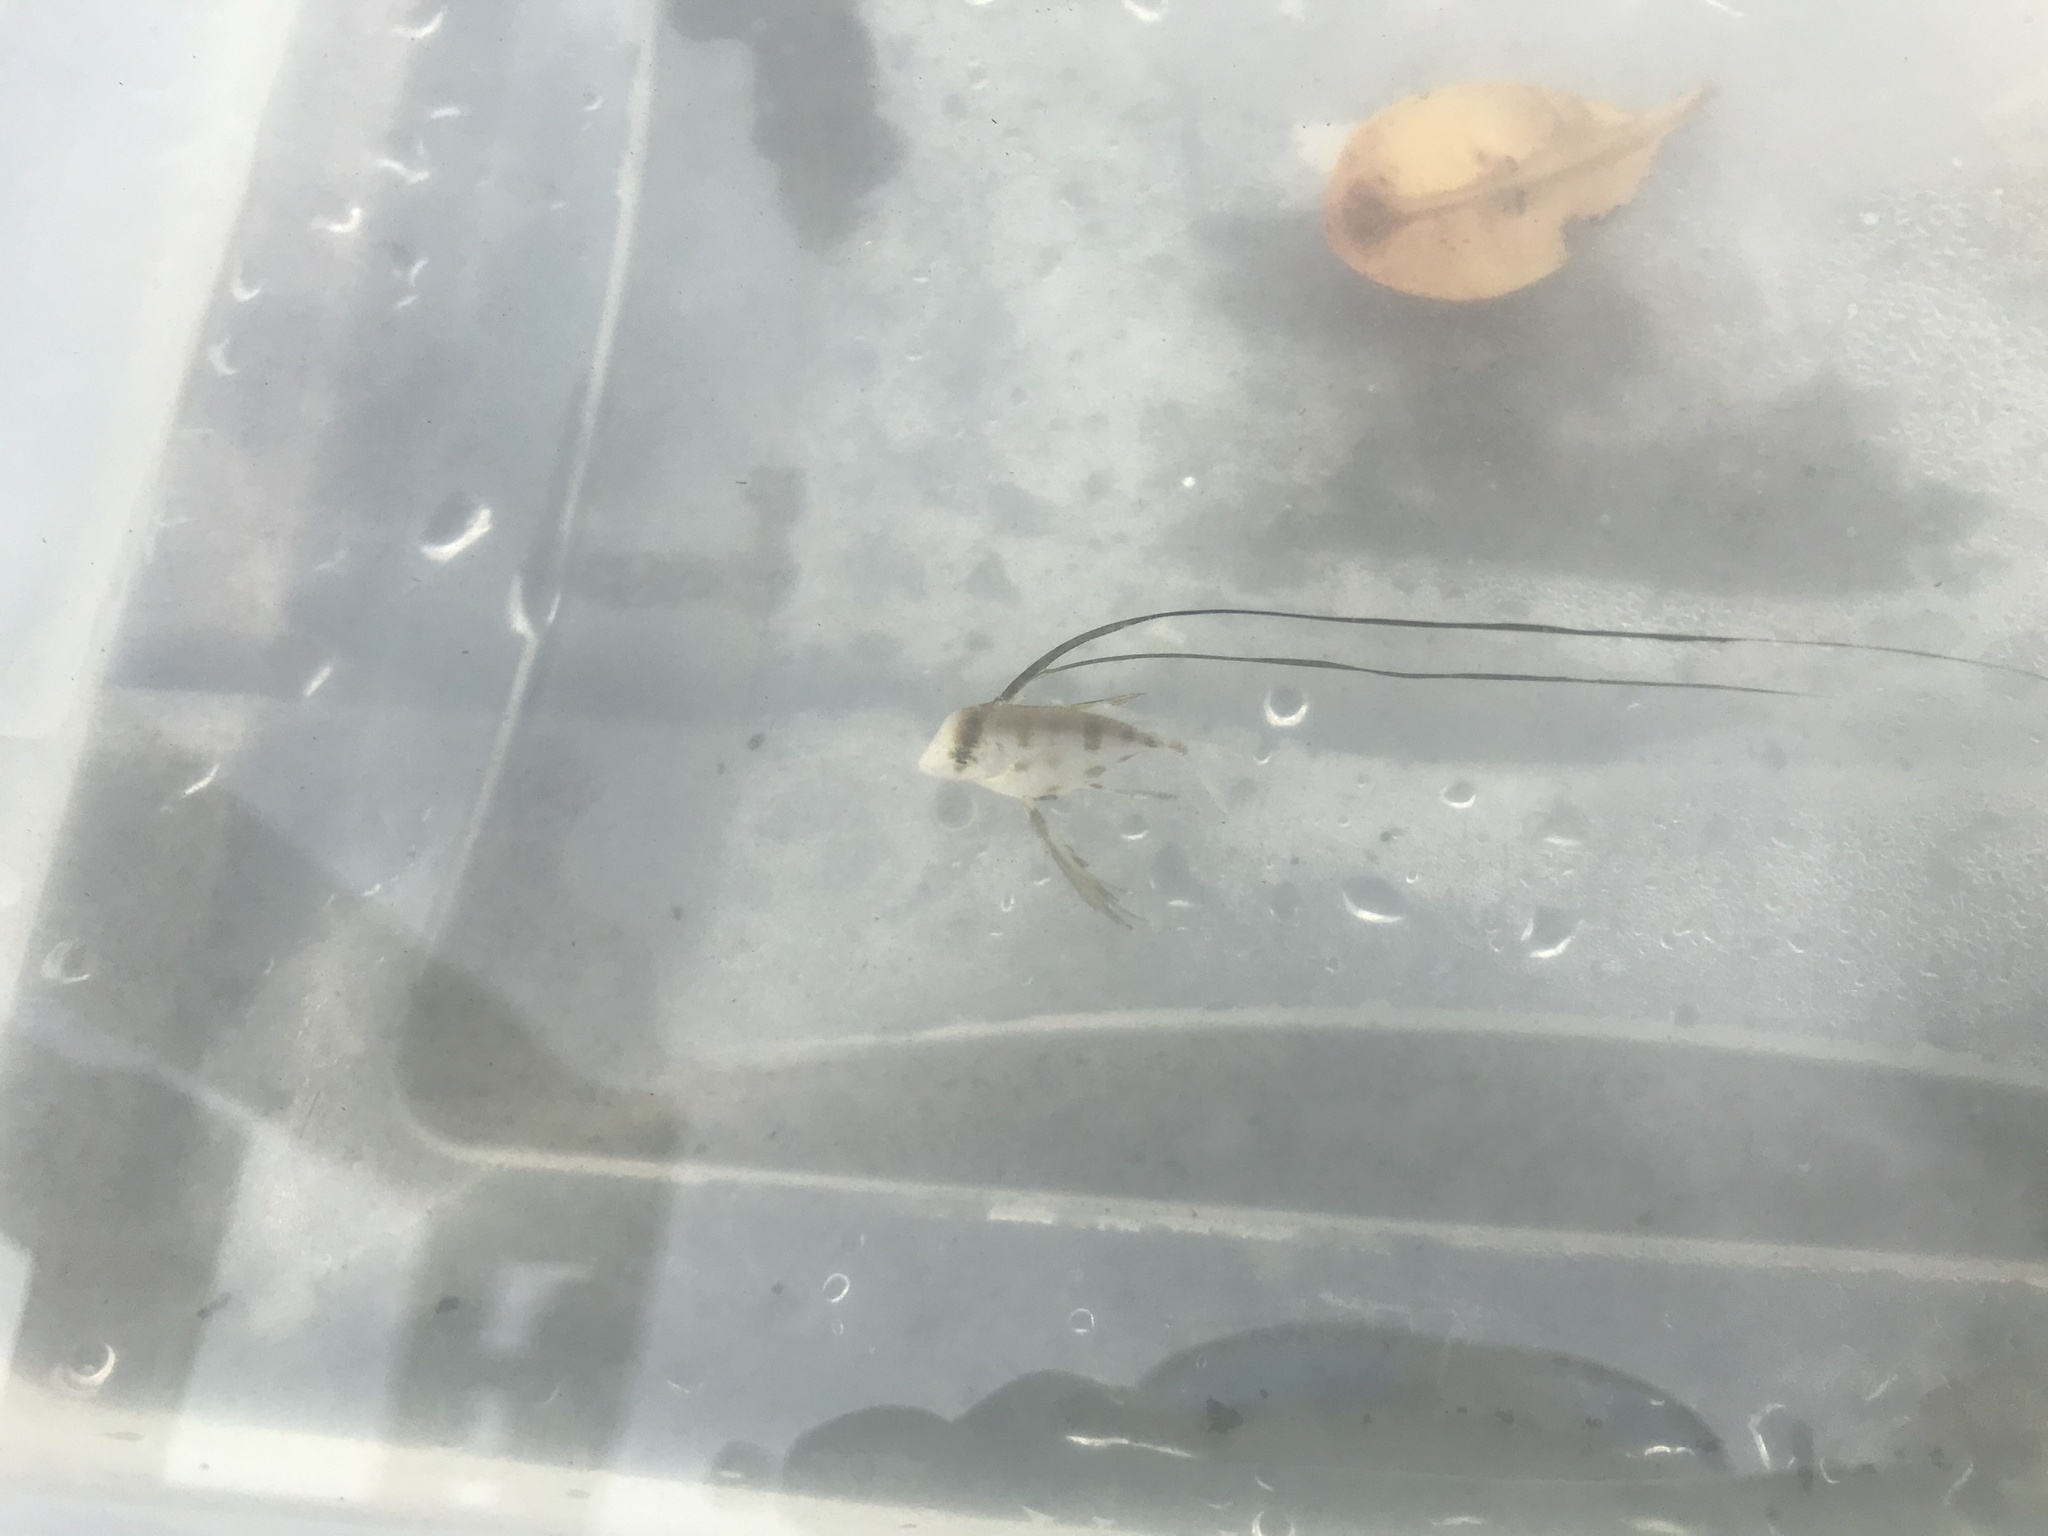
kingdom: Animalia
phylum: Chordata
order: Perciformes
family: Carangidae
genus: Selene
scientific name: Selene vomer
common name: Lookdown
